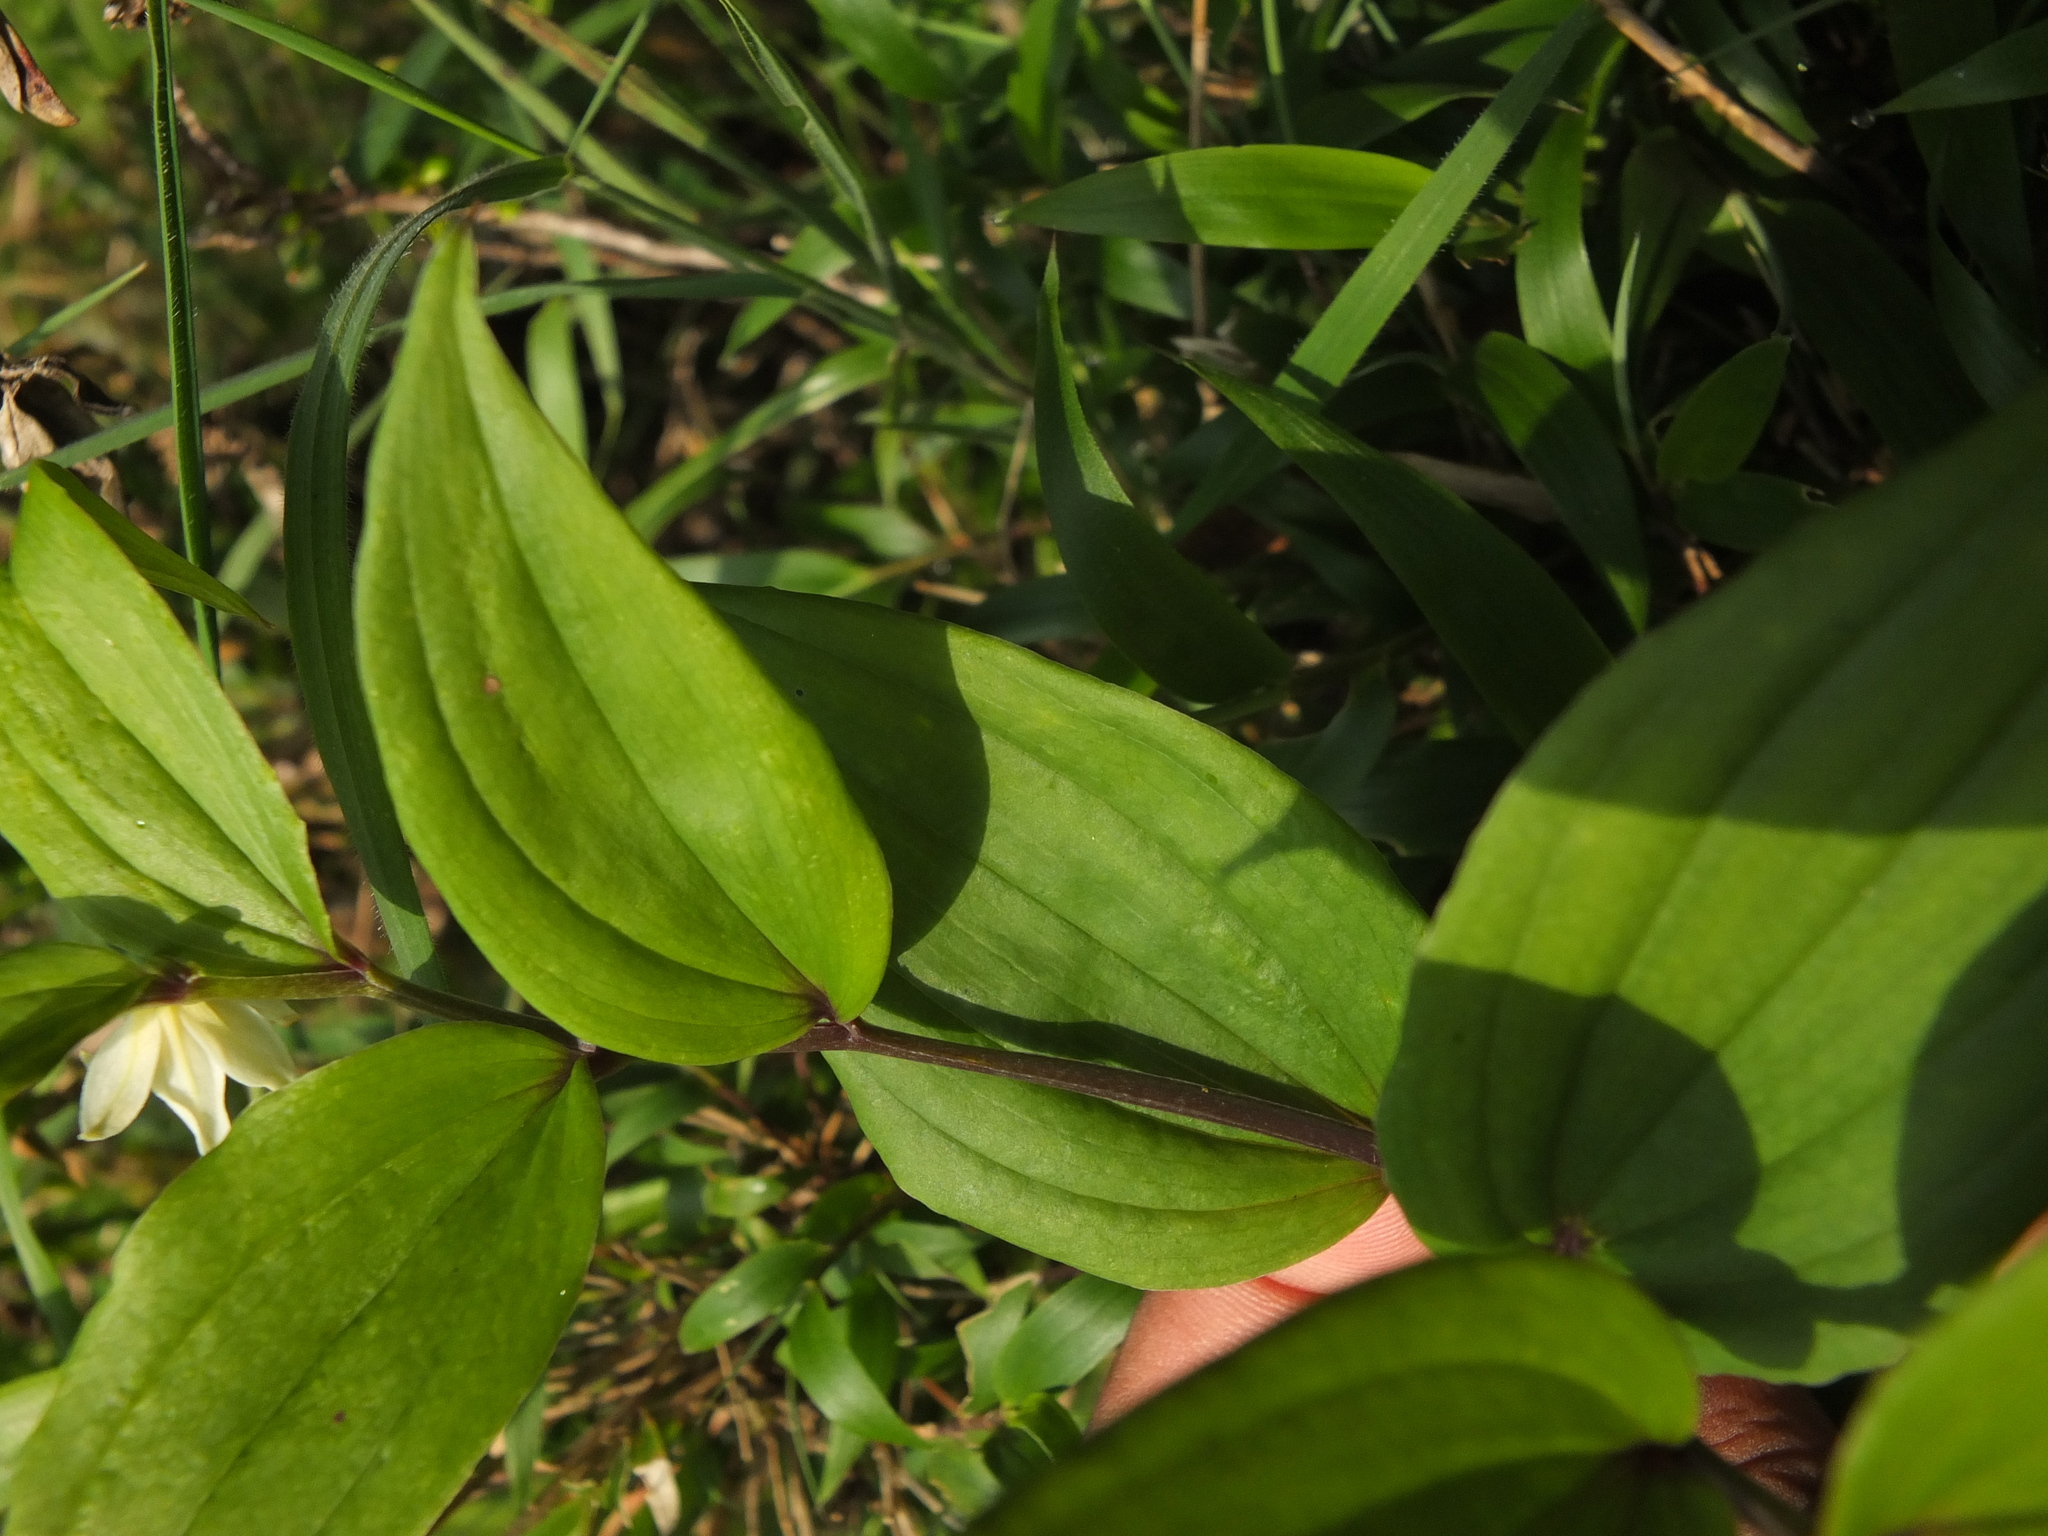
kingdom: Plantae
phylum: Tracheophyta
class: Liliopsida
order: Liliales
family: Colchicaceae
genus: Disporum
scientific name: Disporum cantoniense
